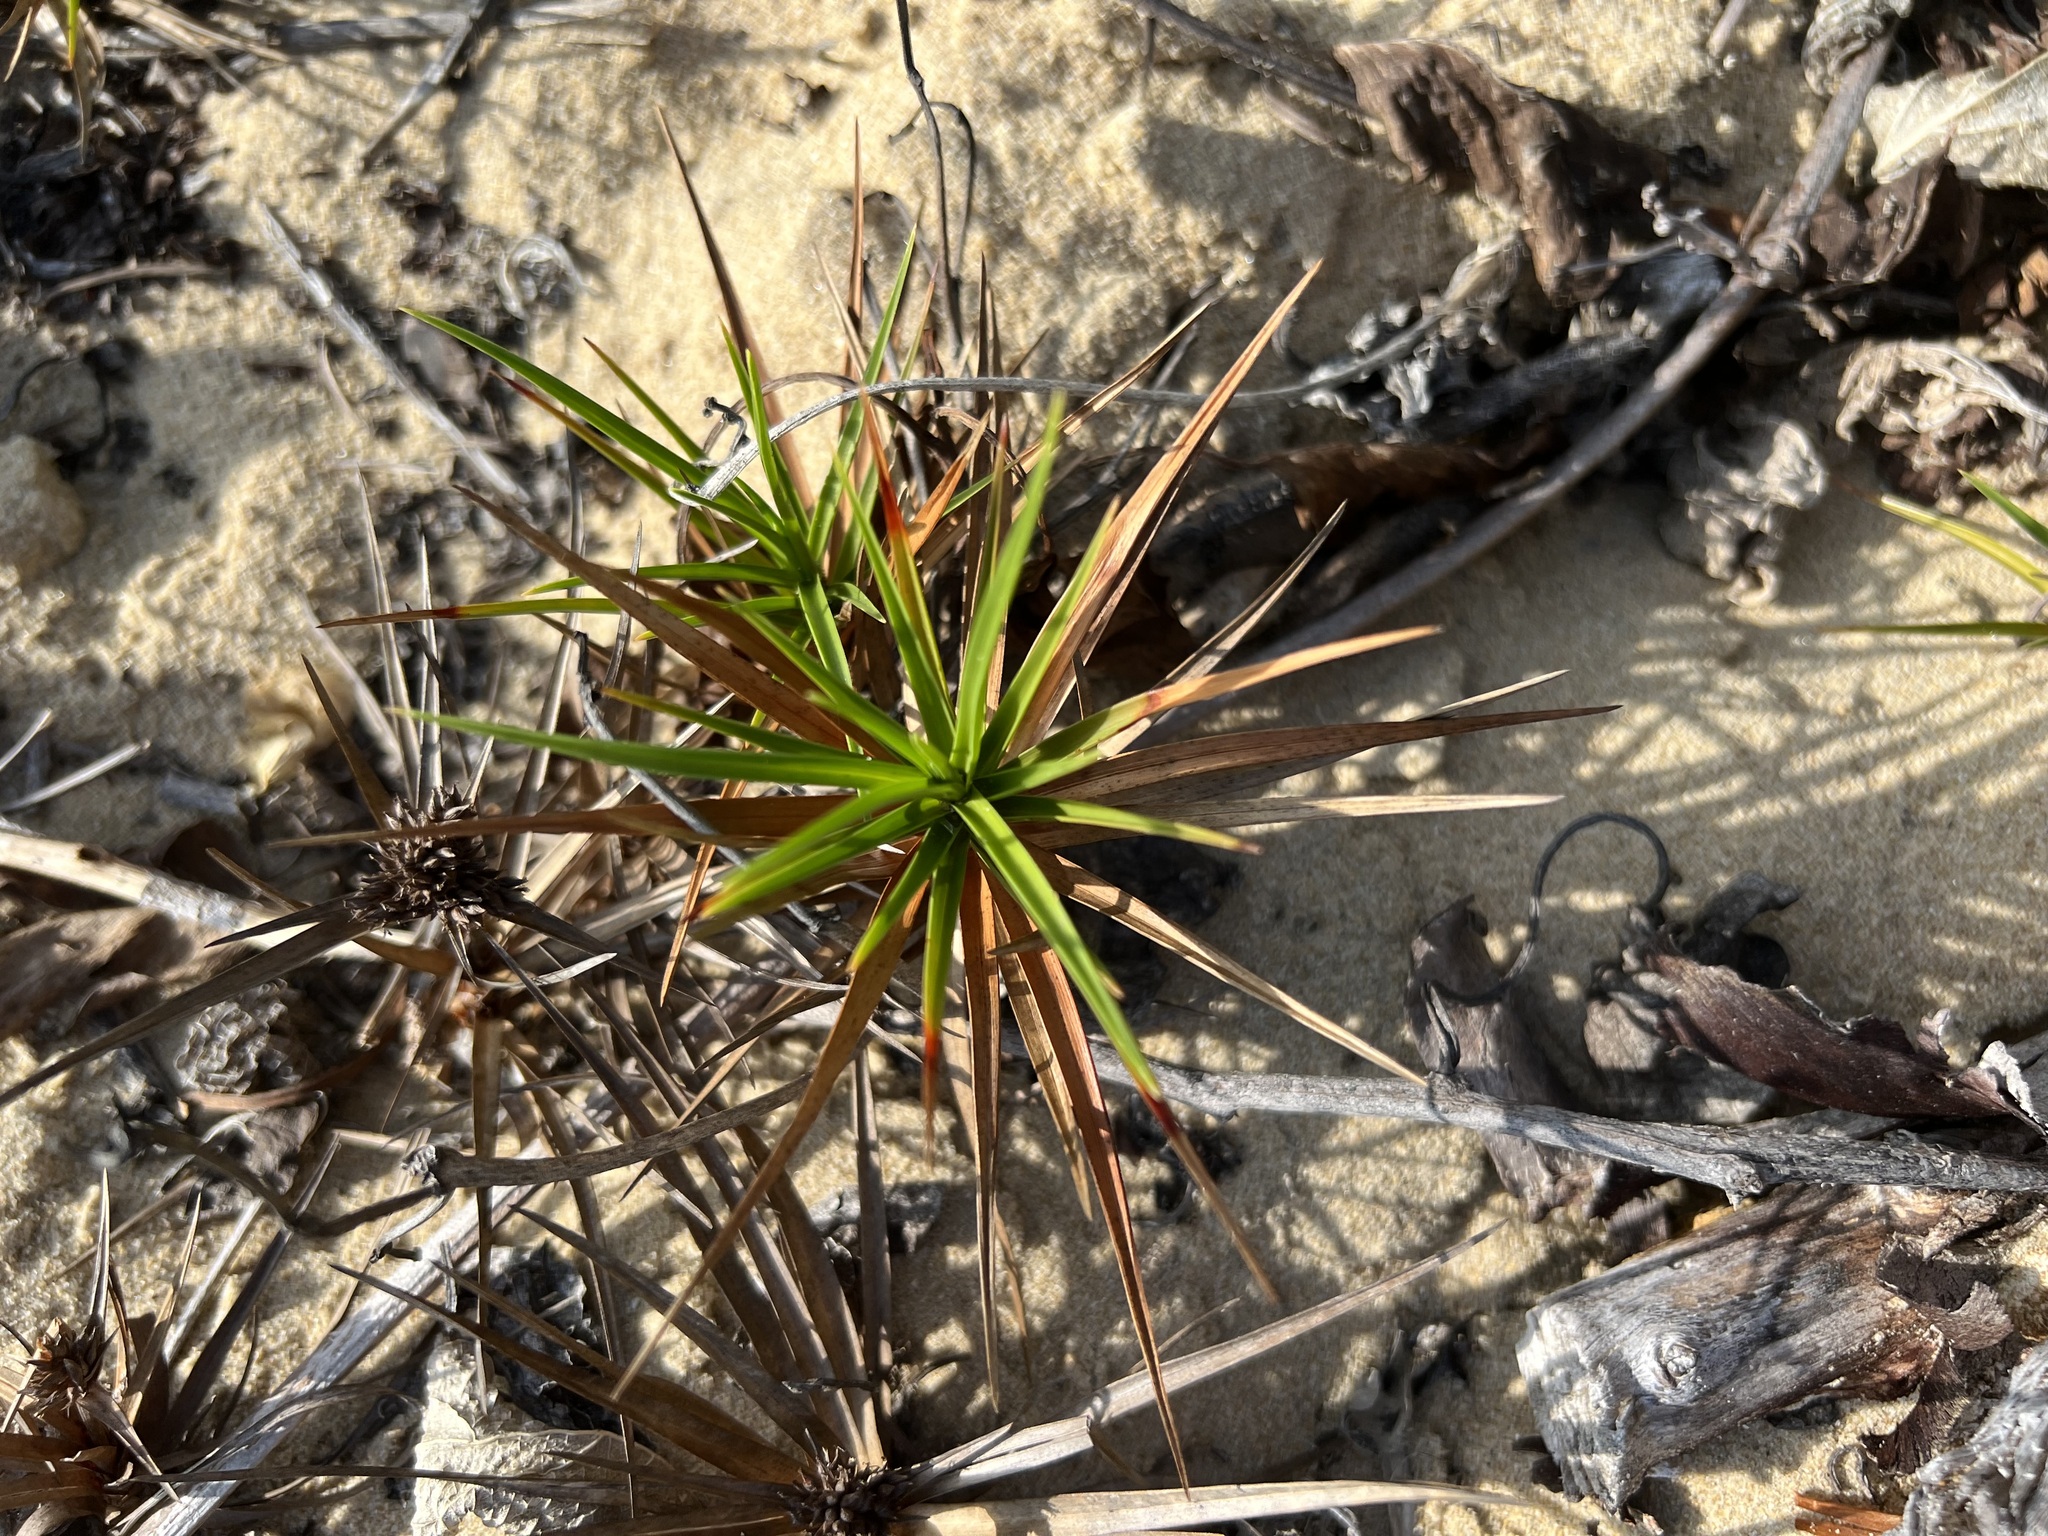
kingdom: Plantae
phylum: Tracheophyta
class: Liliopsida
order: Poales
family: Cyperaceae
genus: Cyperus
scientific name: Cyperus pedunculatus
